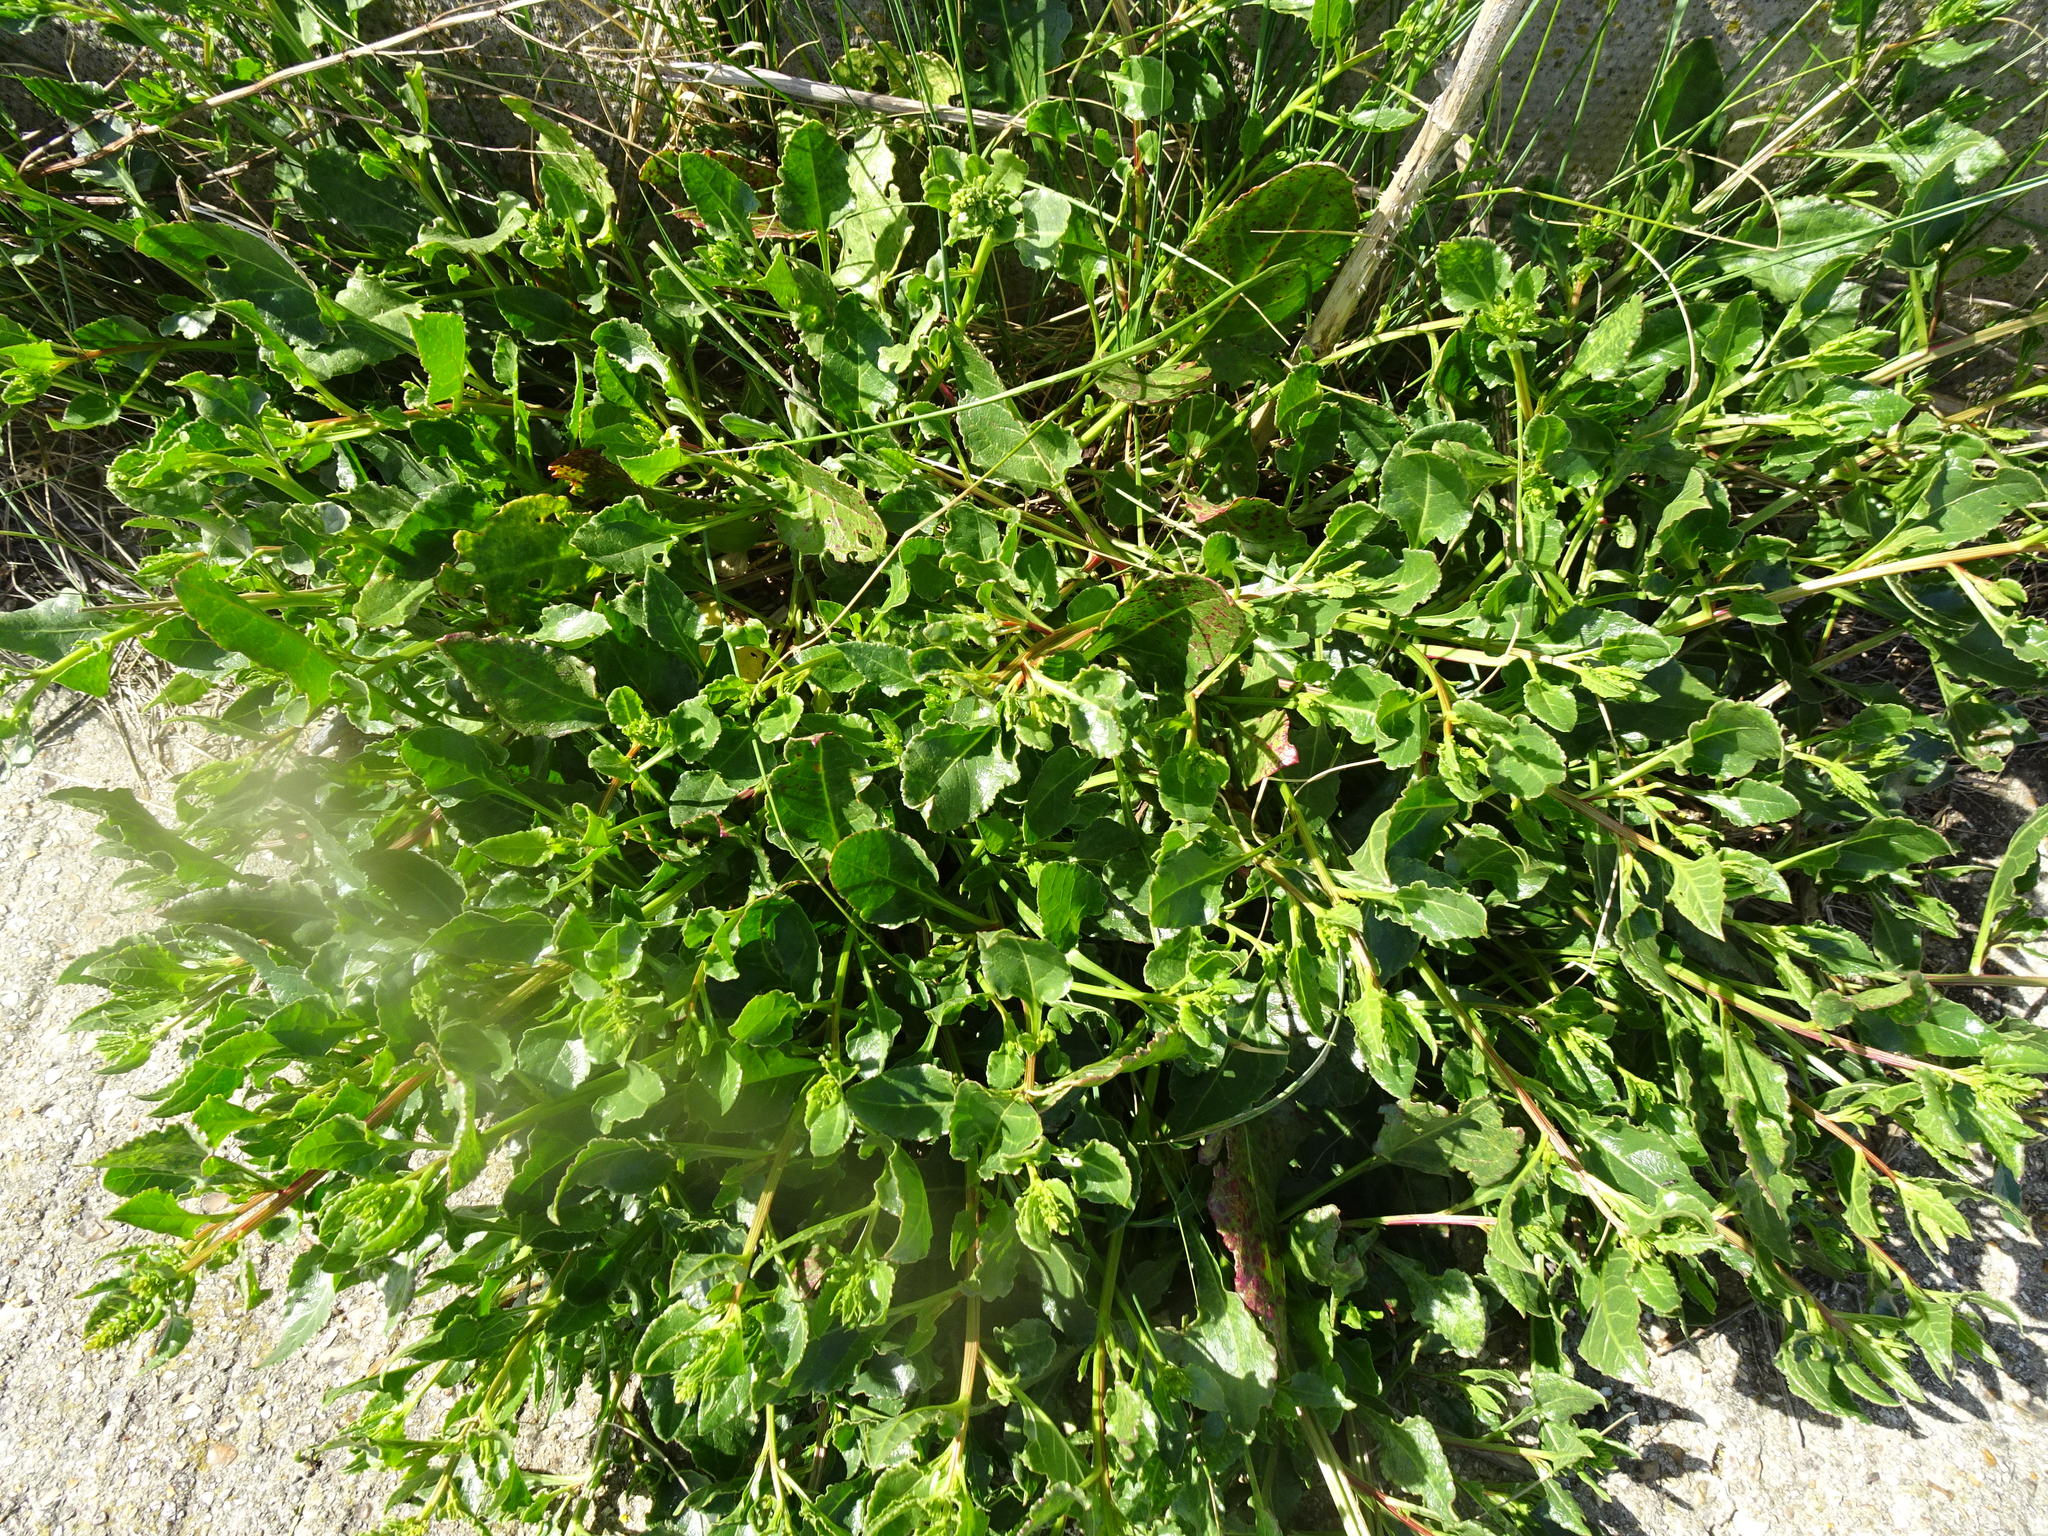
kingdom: Plantae
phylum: Tracheophyta
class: Magnoliopsida
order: Caryophyllales
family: Amaranthaceae
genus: Beta
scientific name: Beta vulgaris
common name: Beet
